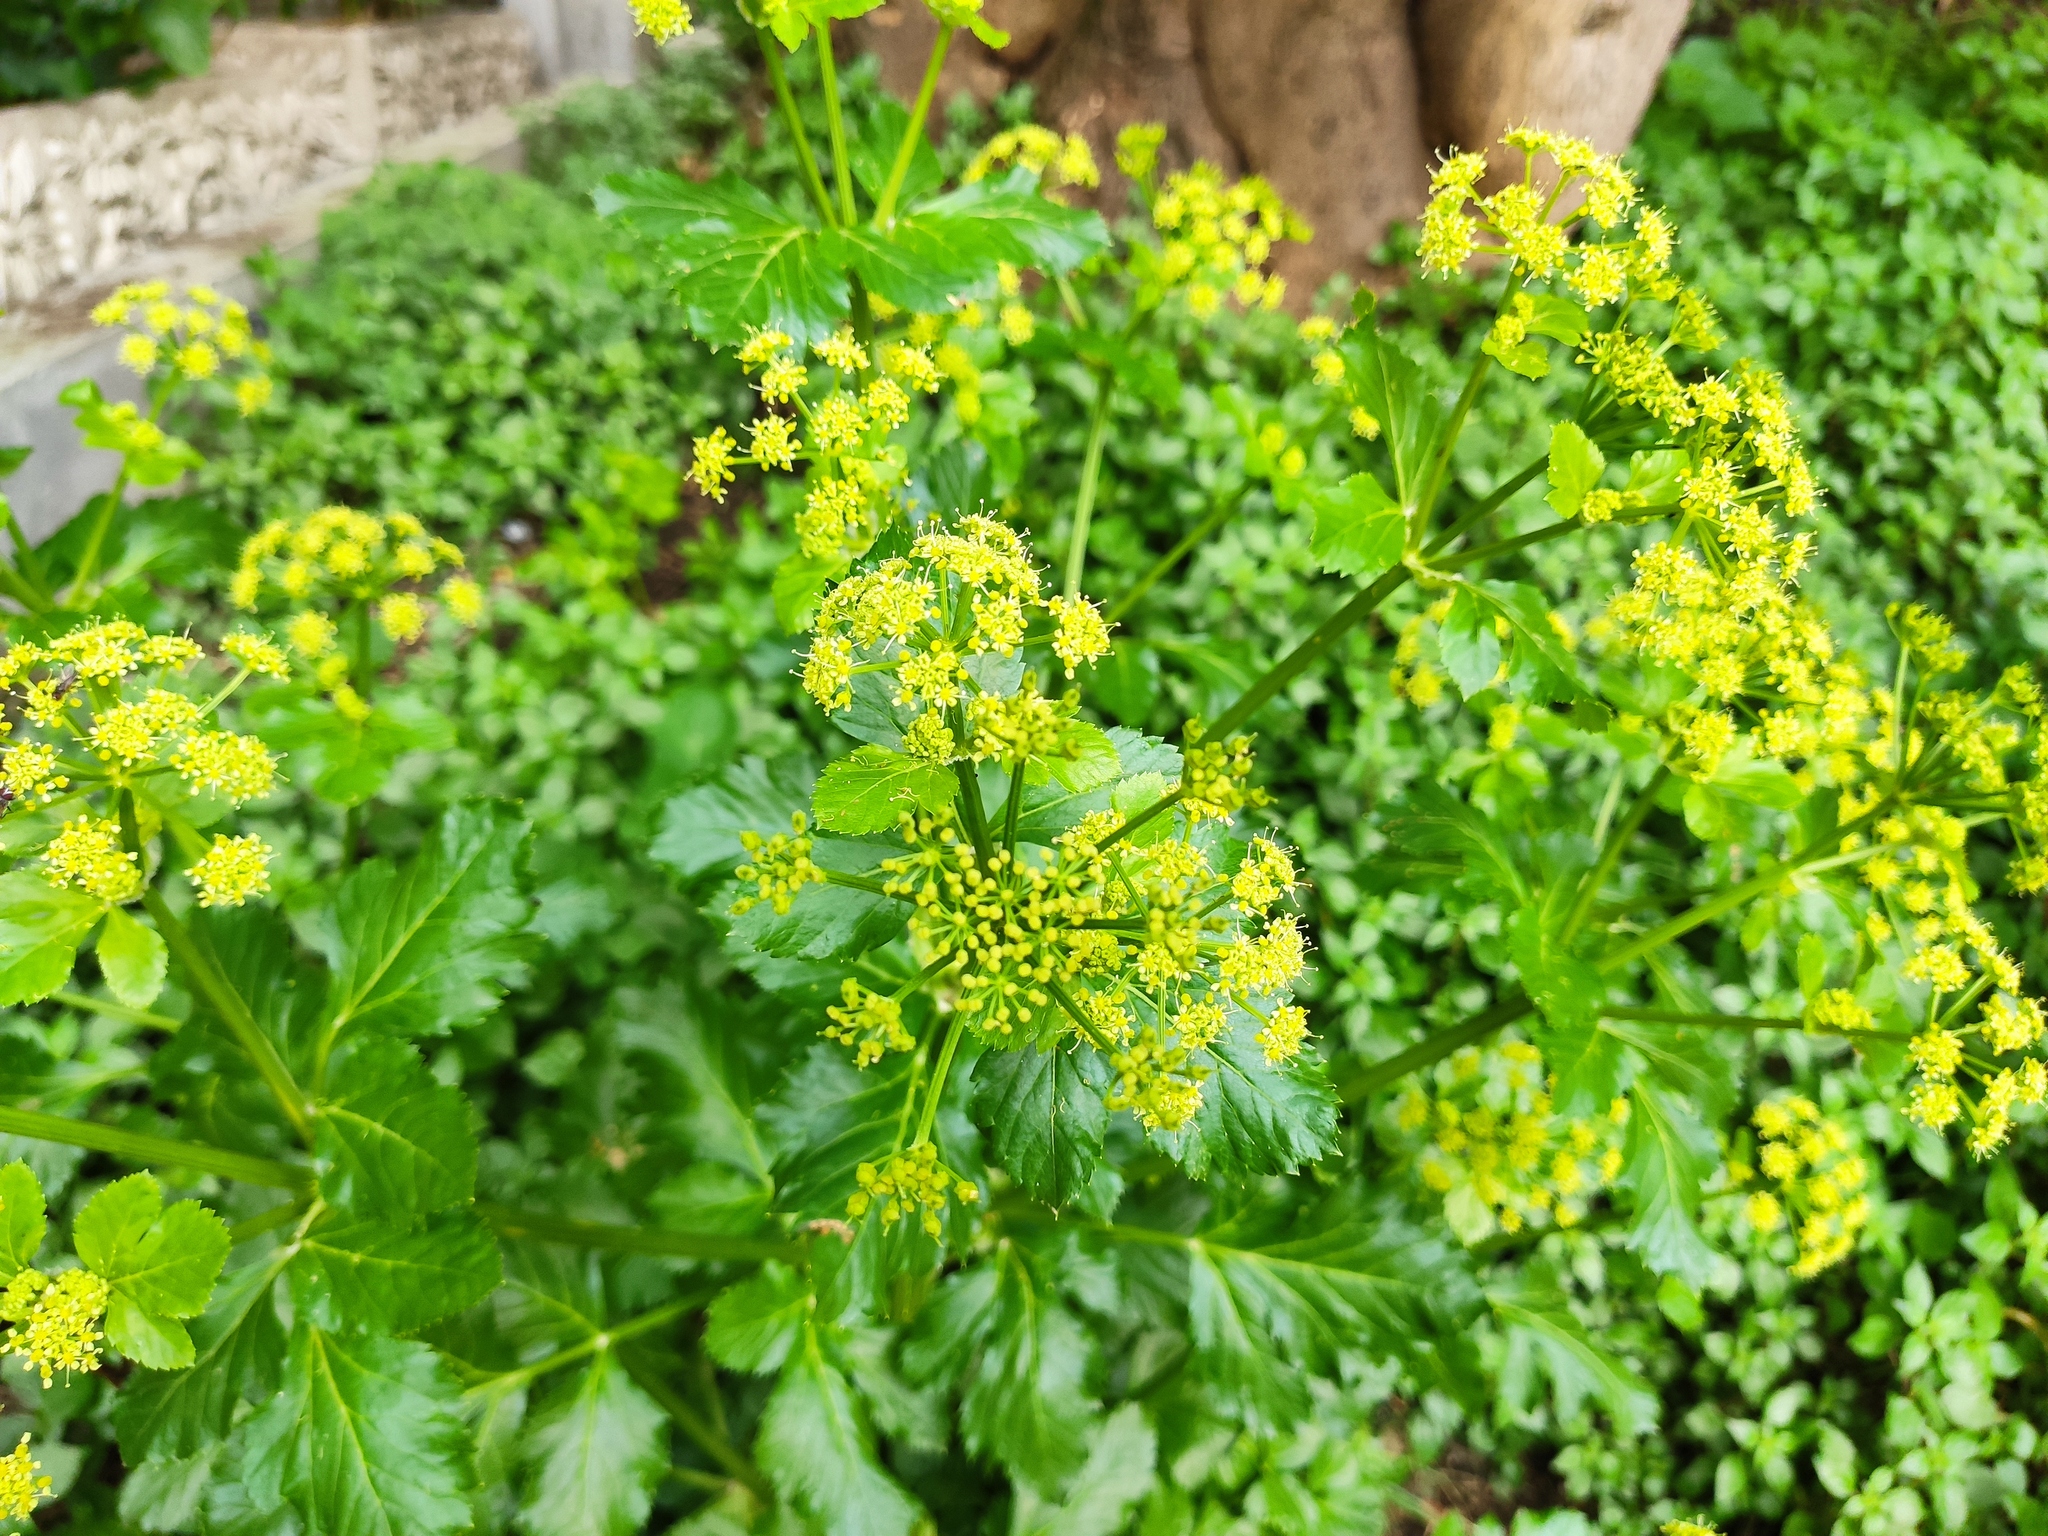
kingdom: Plantae
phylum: Tracheophyta
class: Magnoliopsida
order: Apiales
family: Apiaceae
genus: Smyrnium
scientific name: Smyrnium olusatrum
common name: Alexanders
